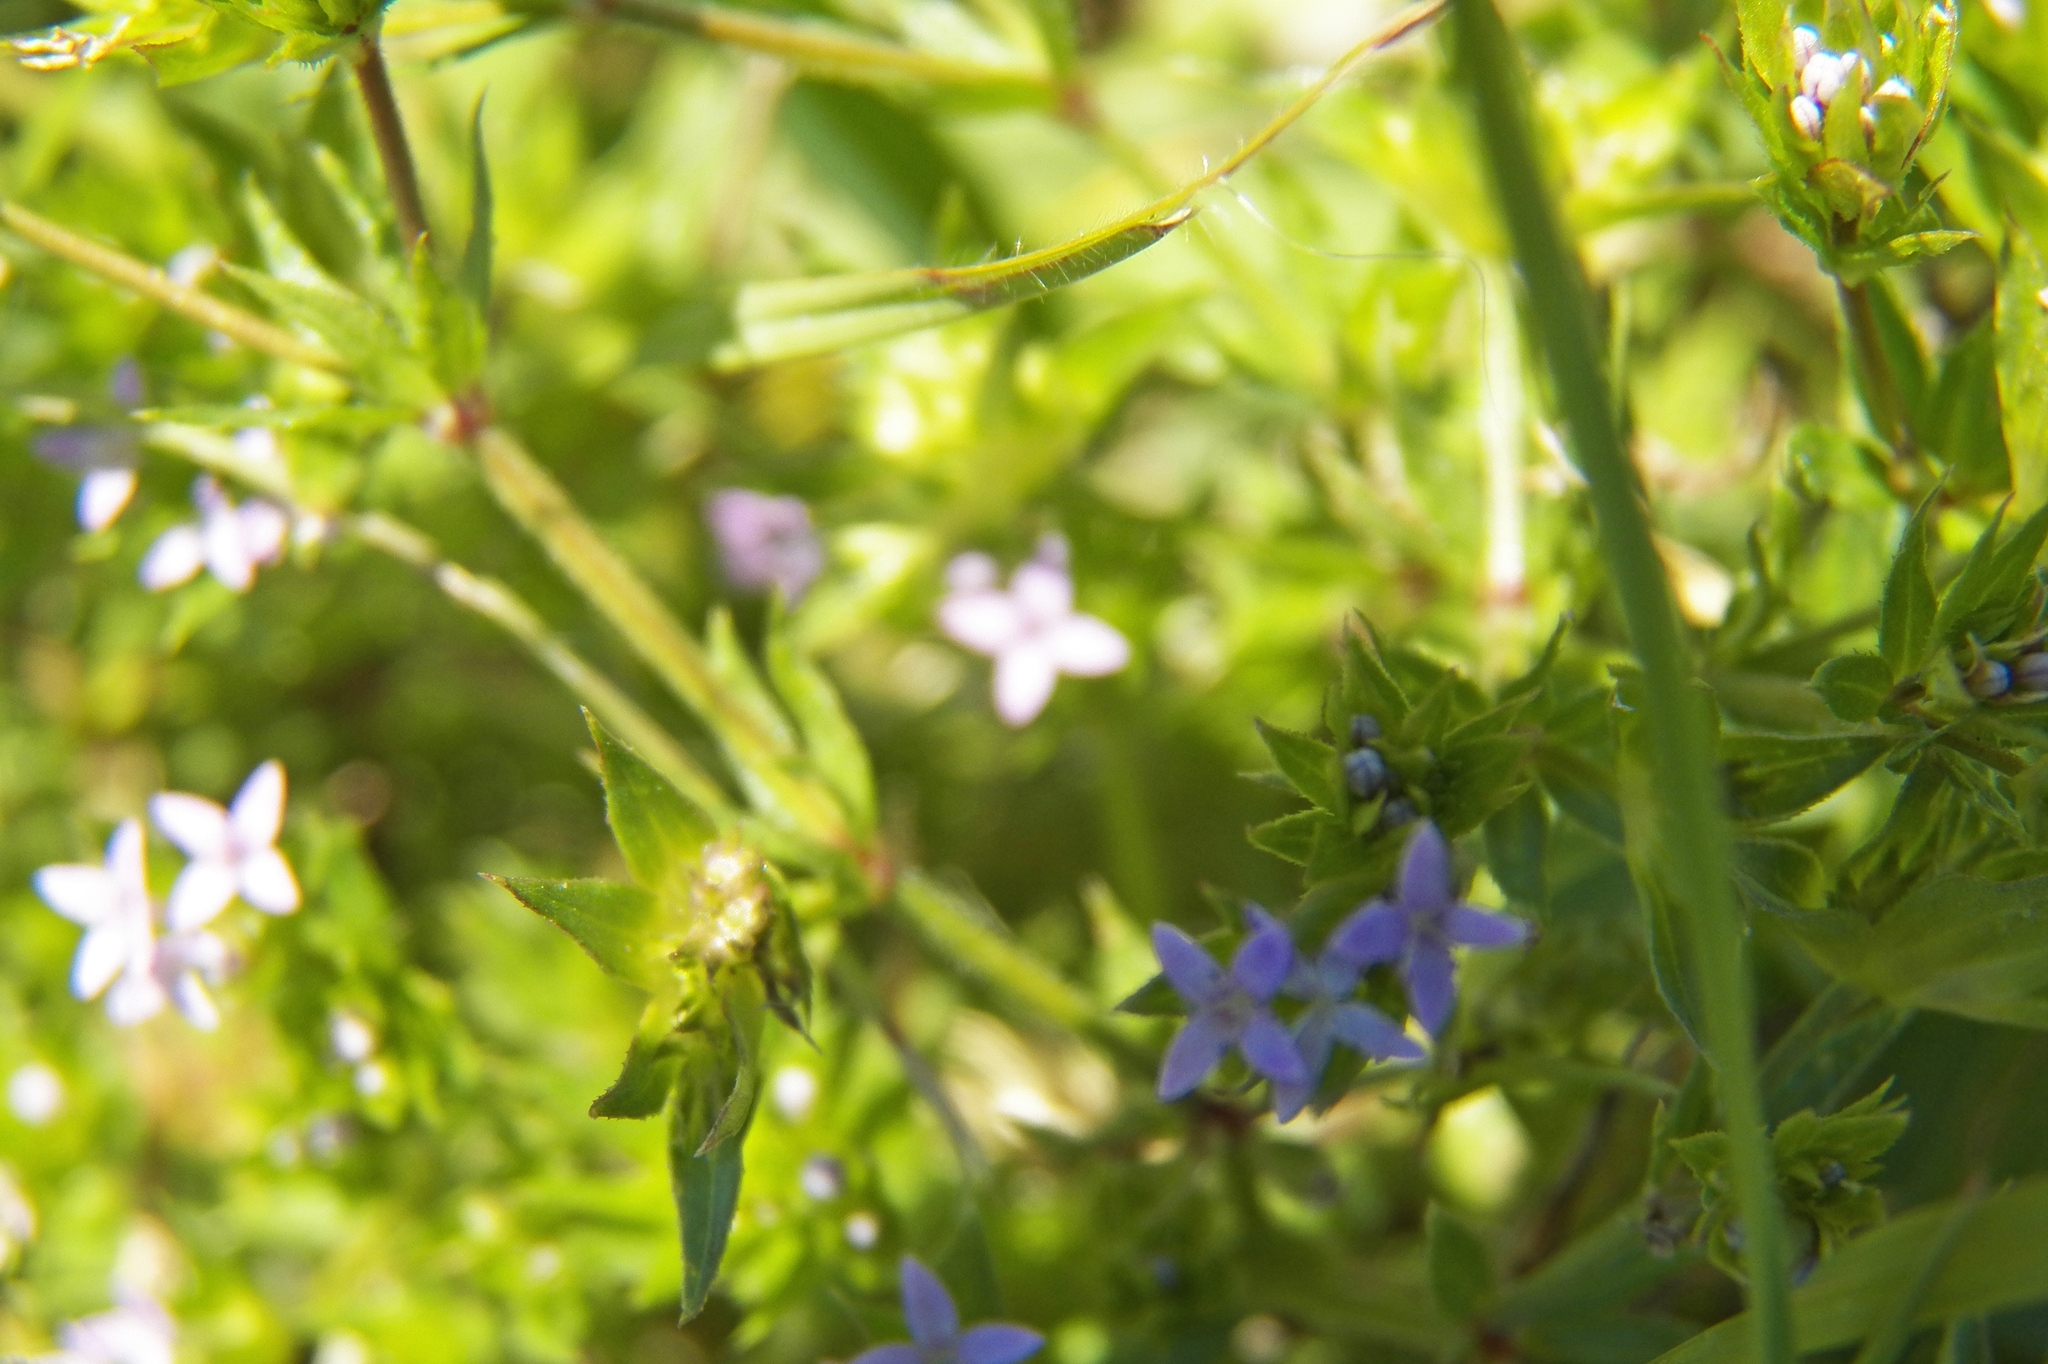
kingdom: Plantae
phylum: Tracheophyta
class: Magnoliopsida
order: Gentianales
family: Rubiaceae
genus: Sherardia
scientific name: Sherardia arvensis
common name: Field madder
